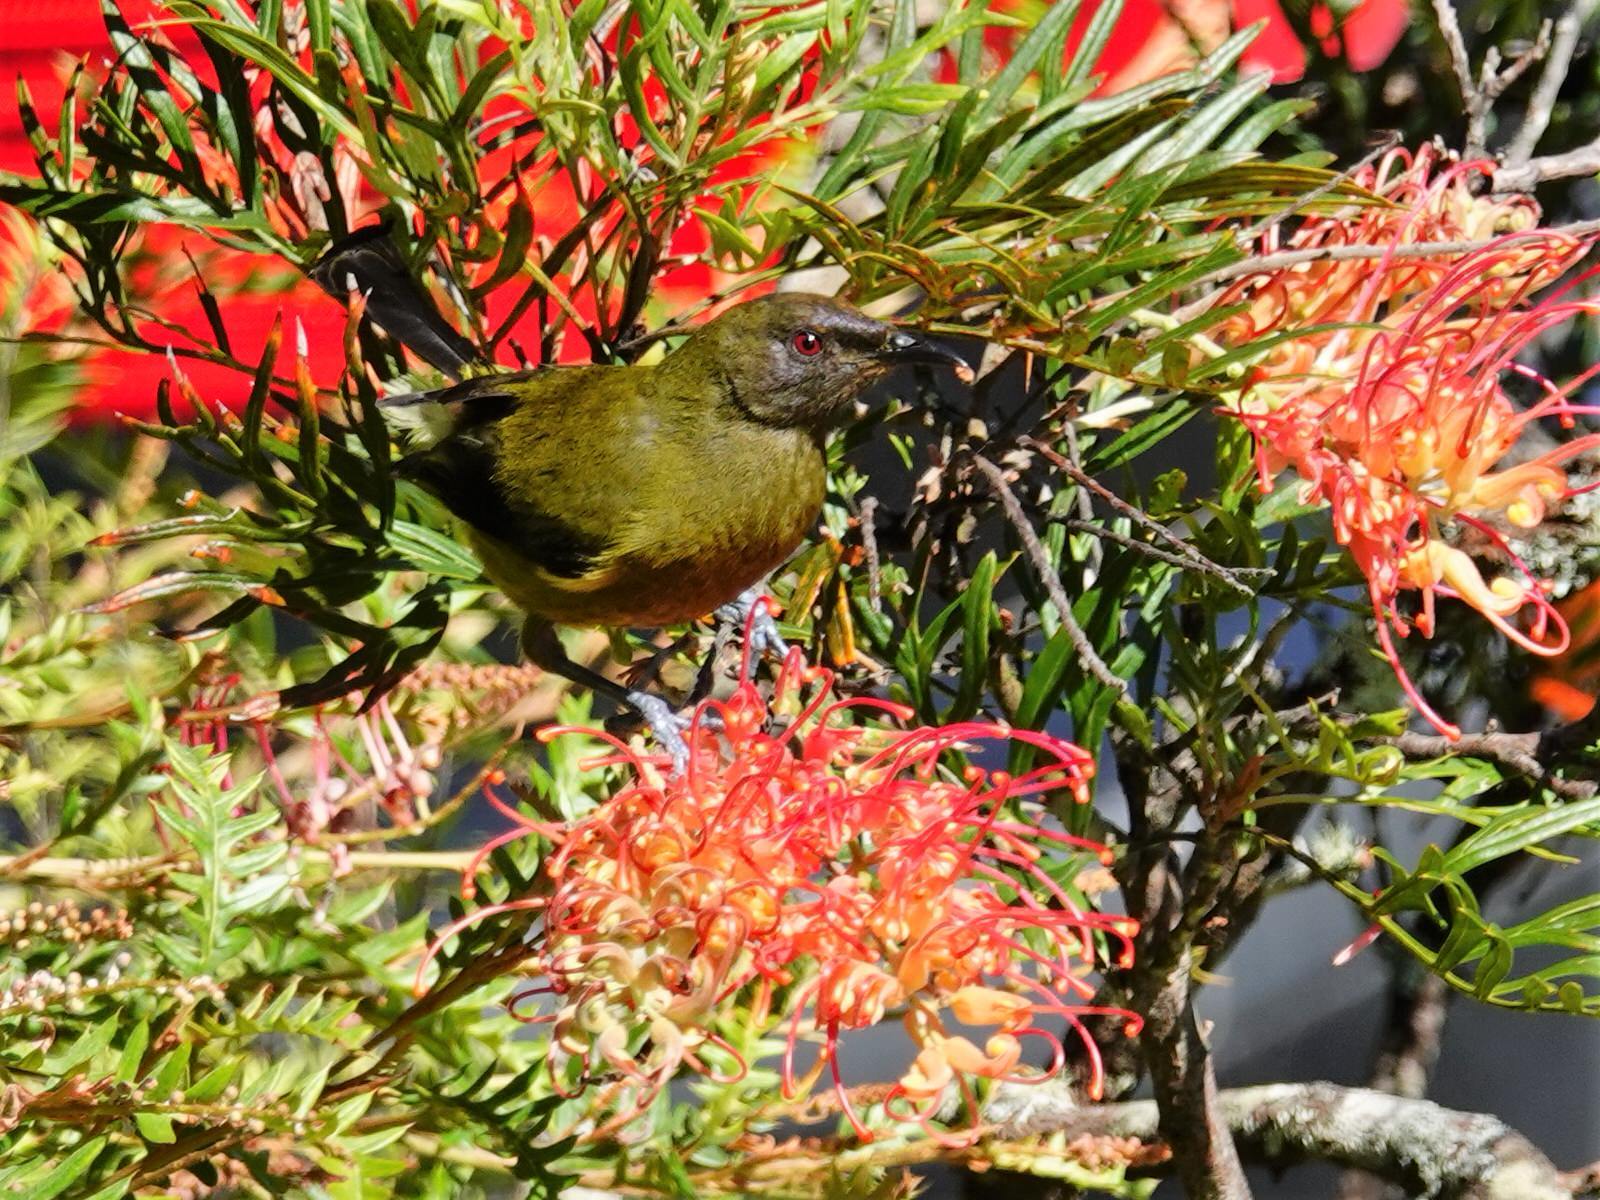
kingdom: Animalia
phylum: Chordata
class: Aves
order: Passeriformes
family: Meliphagidae
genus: Anthornis
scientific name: Anthornis melanura
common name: New zealand bellbird
